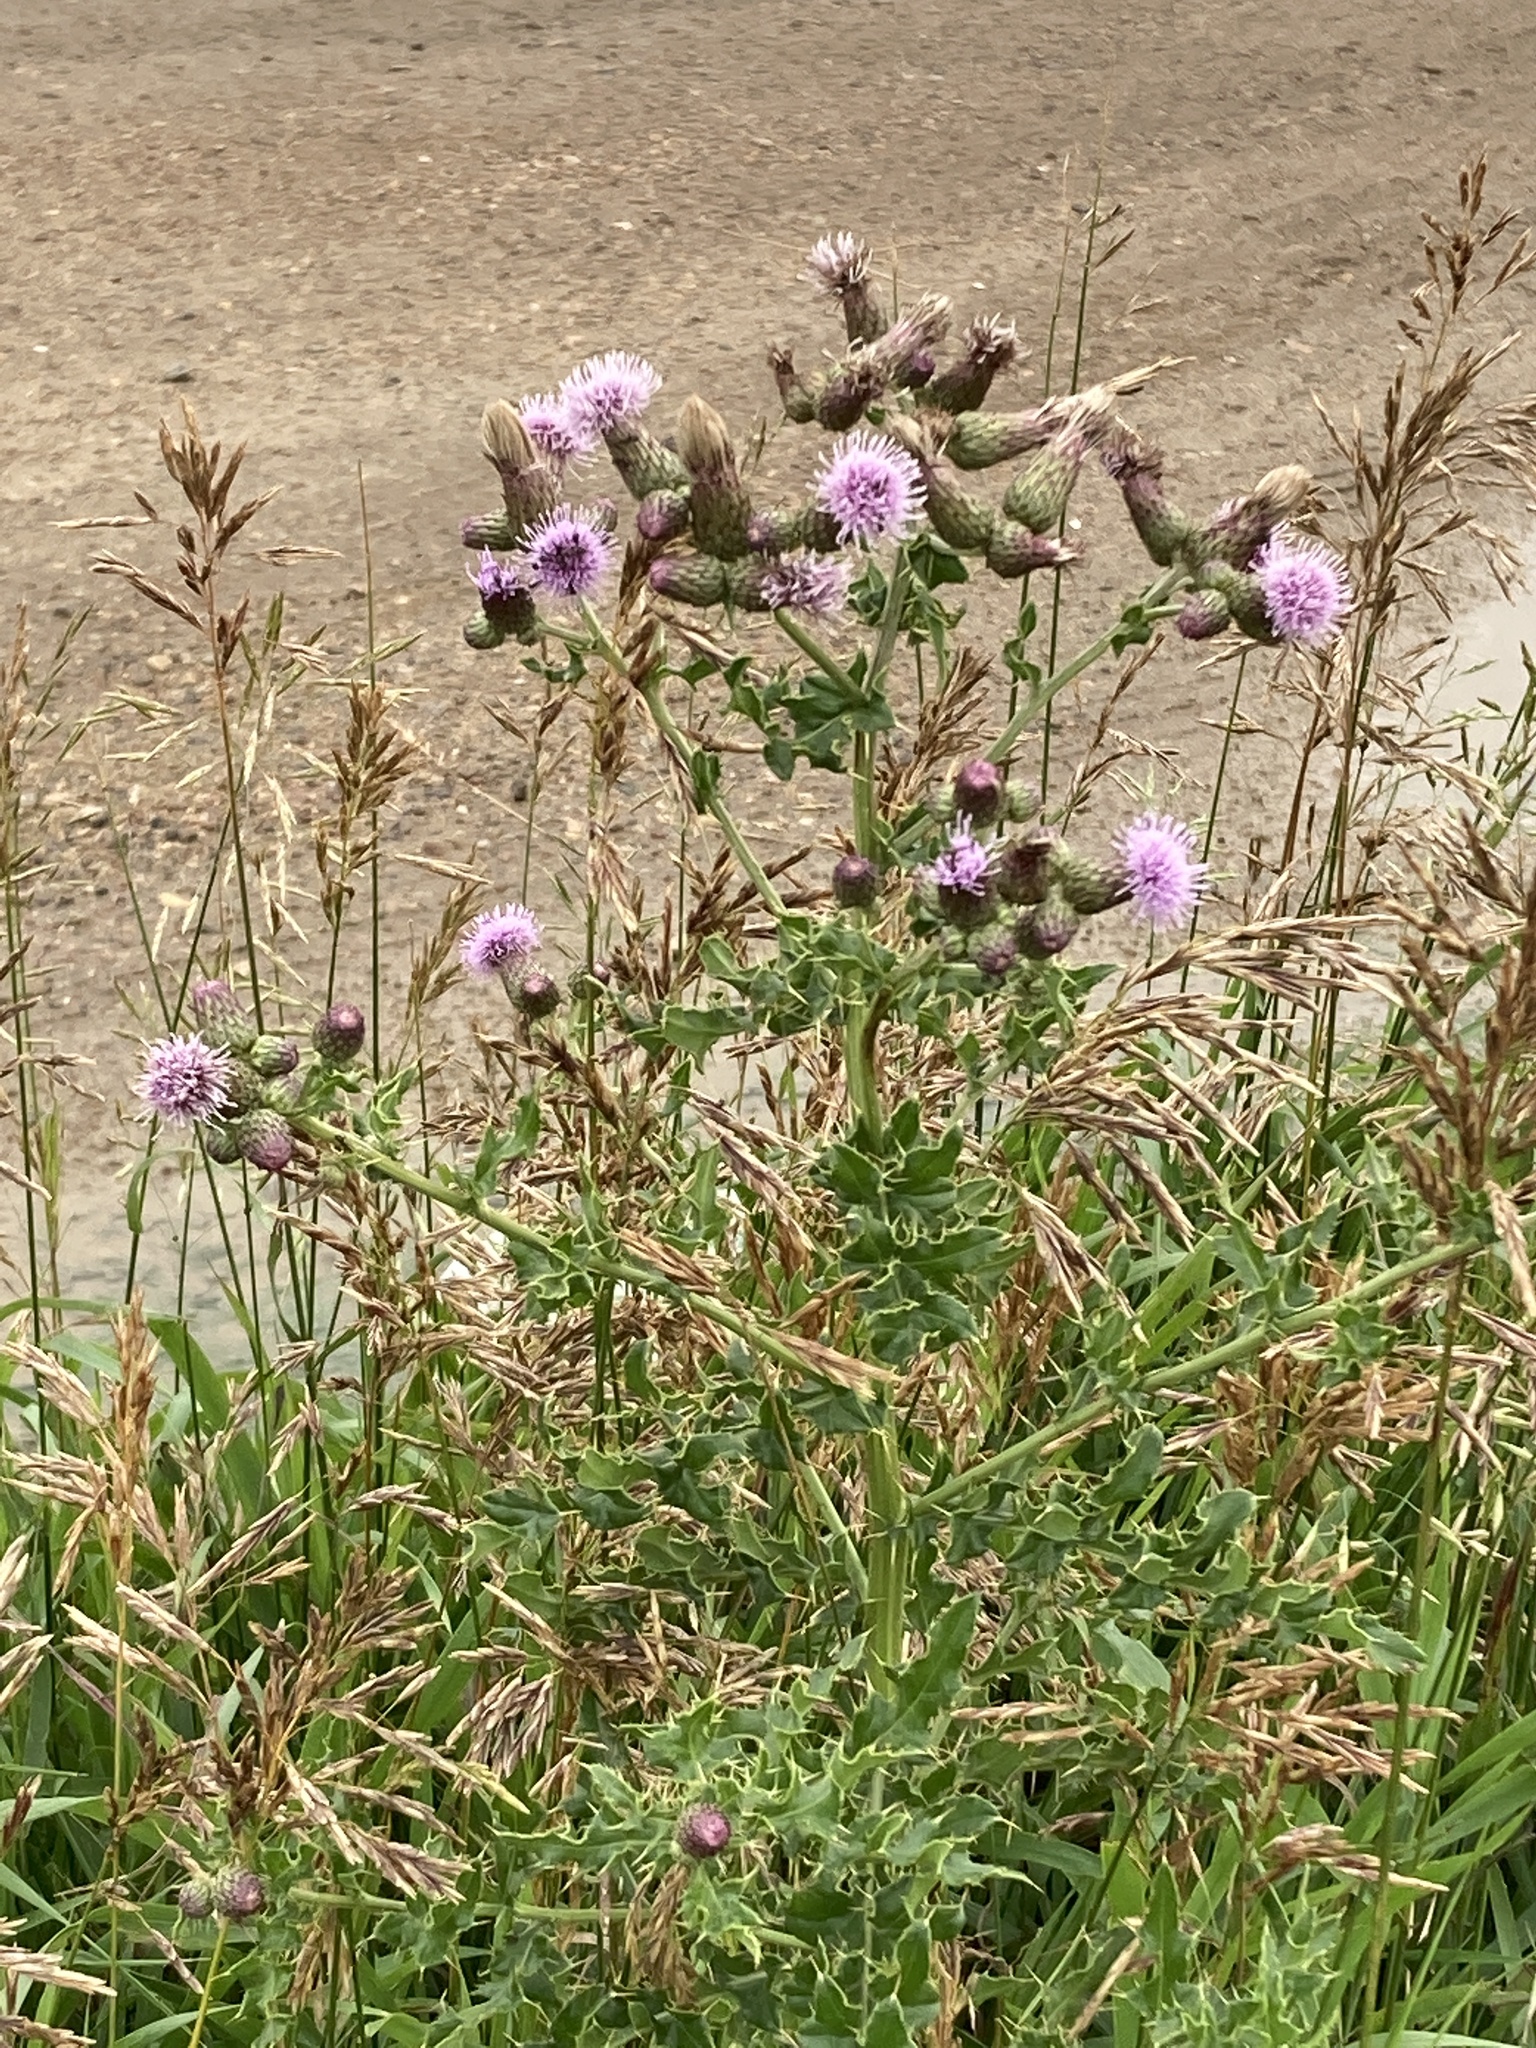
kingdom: Plantae
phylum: Tracheophyta
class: Magnoliopsida
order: Asterales
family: Asteraceae
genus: Cirsium
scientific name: Cirsium arvense
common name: Creeping thistle
